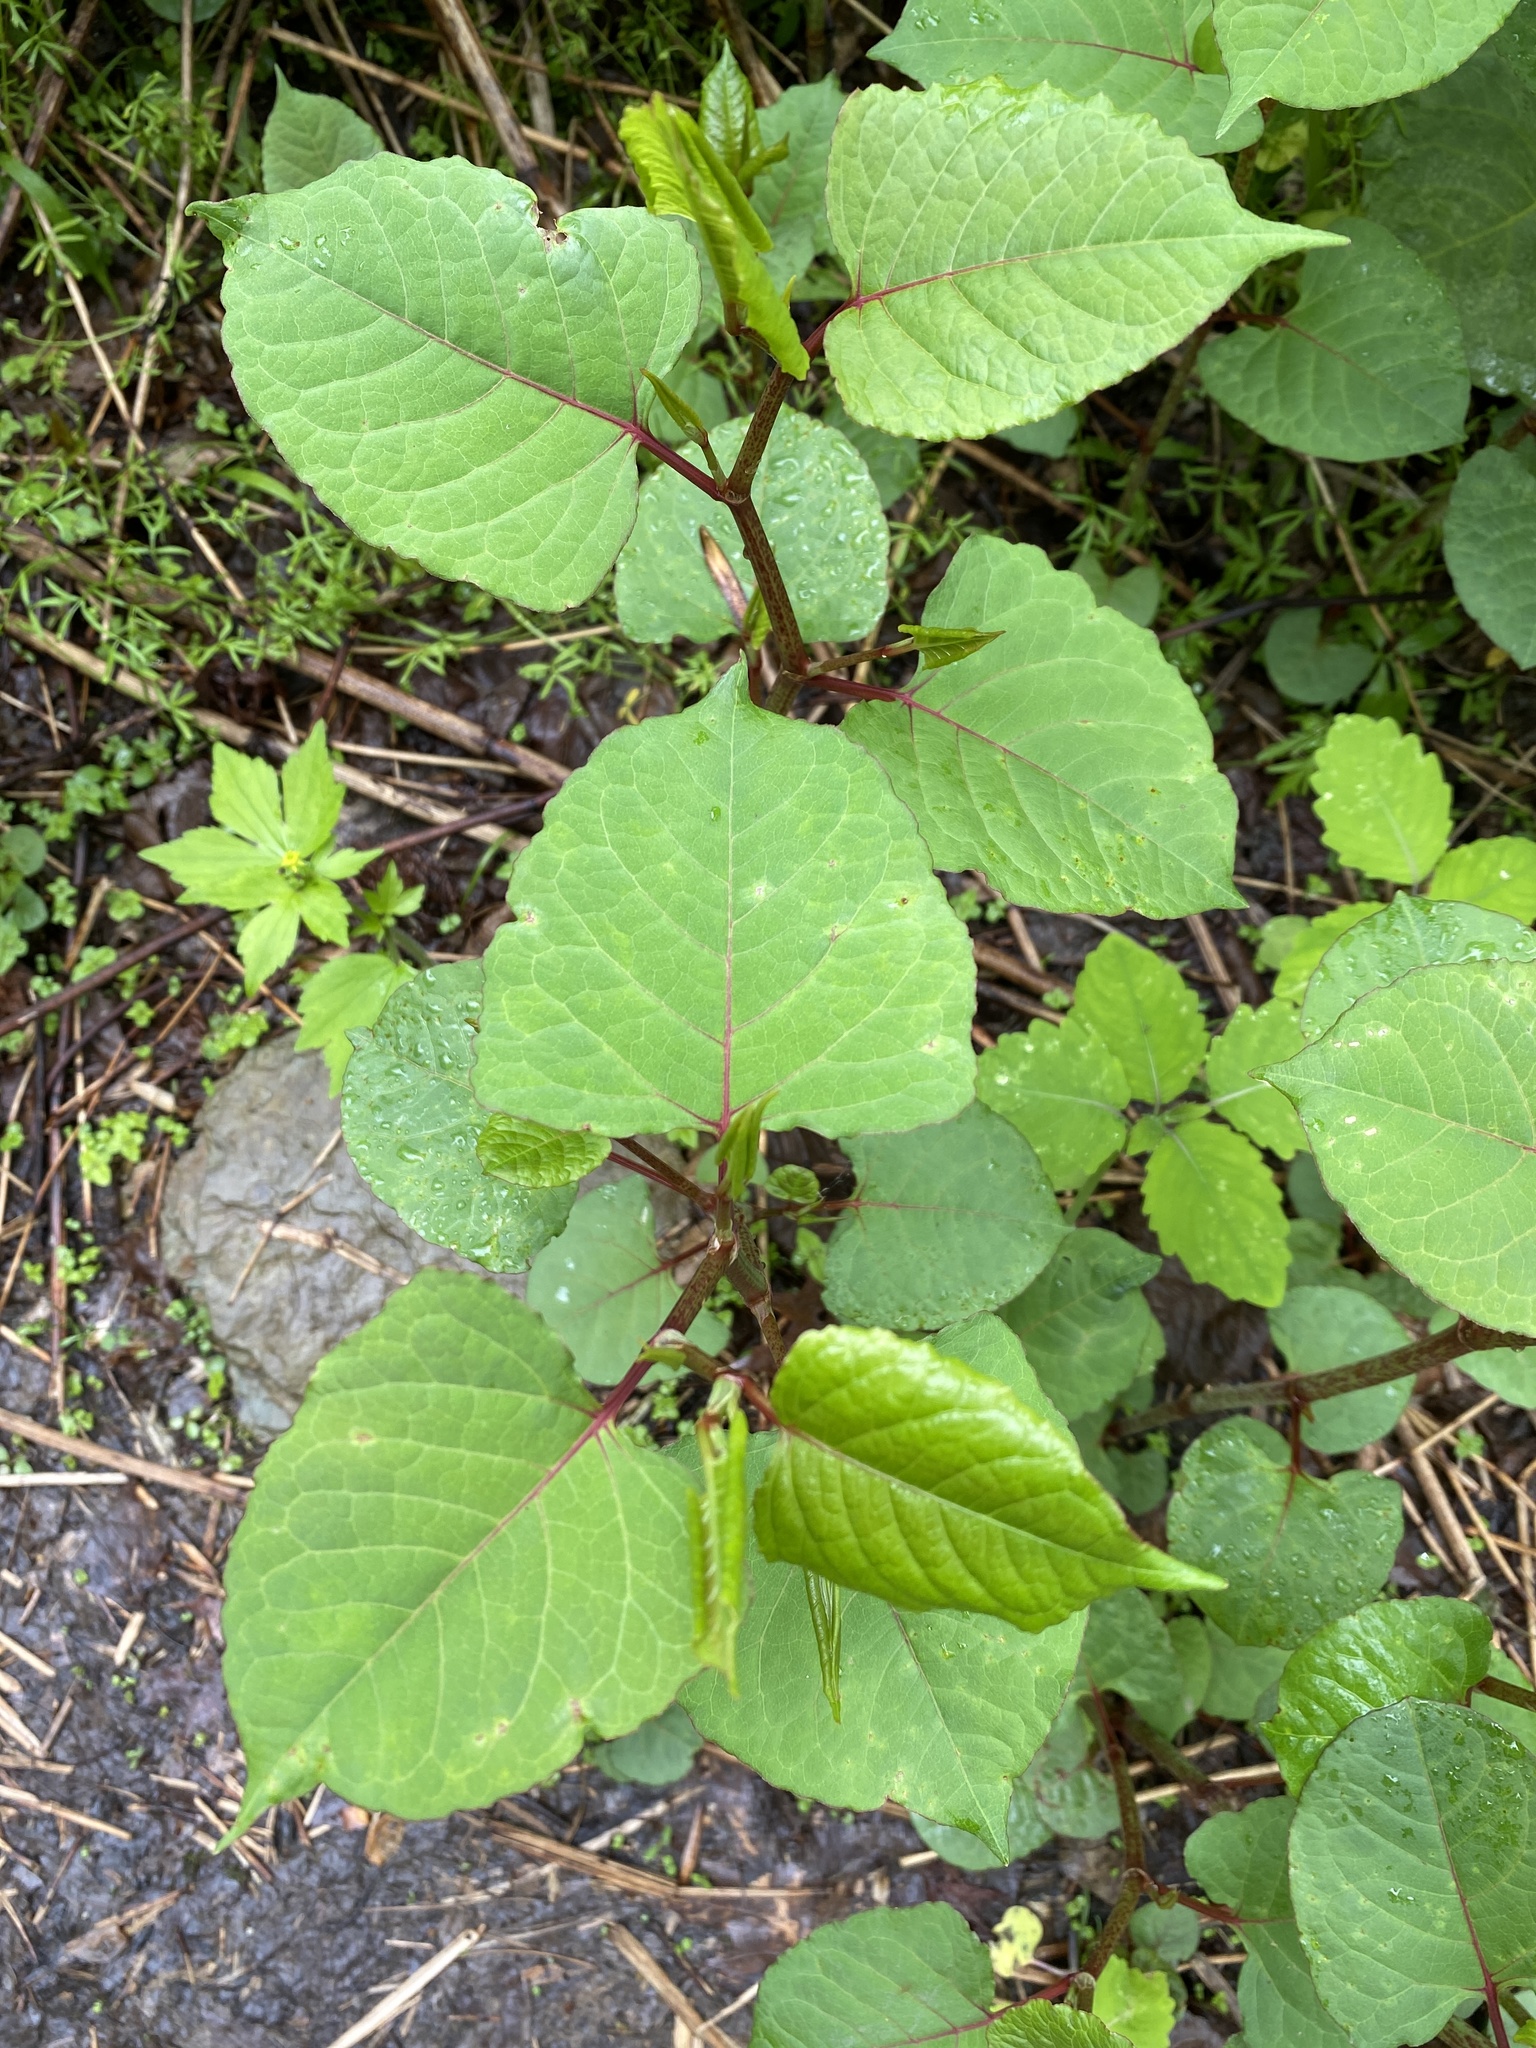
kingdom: Plantae
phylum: Tracheophyta
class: Magnoliopsida
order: Caryophyllales
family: Polygonaceae
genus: Reynoutria
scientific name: Reynoutria japonica
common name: Japanese knotweed
